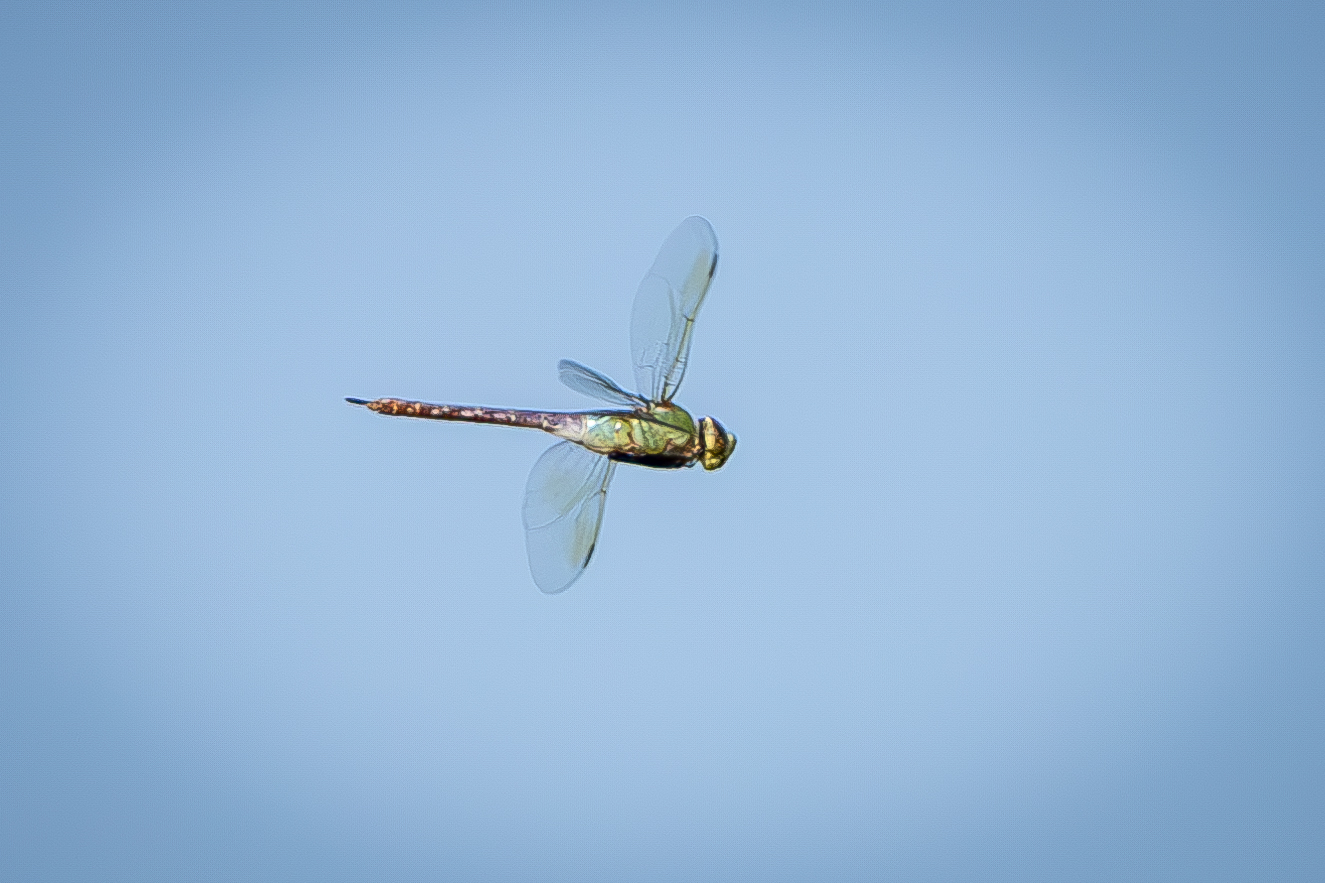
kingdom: Animalia
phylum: Arthropoda
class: Insecta
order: Odonata
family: Aeshnidae
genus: Anax
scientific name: Anax junius
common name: Common green darner
